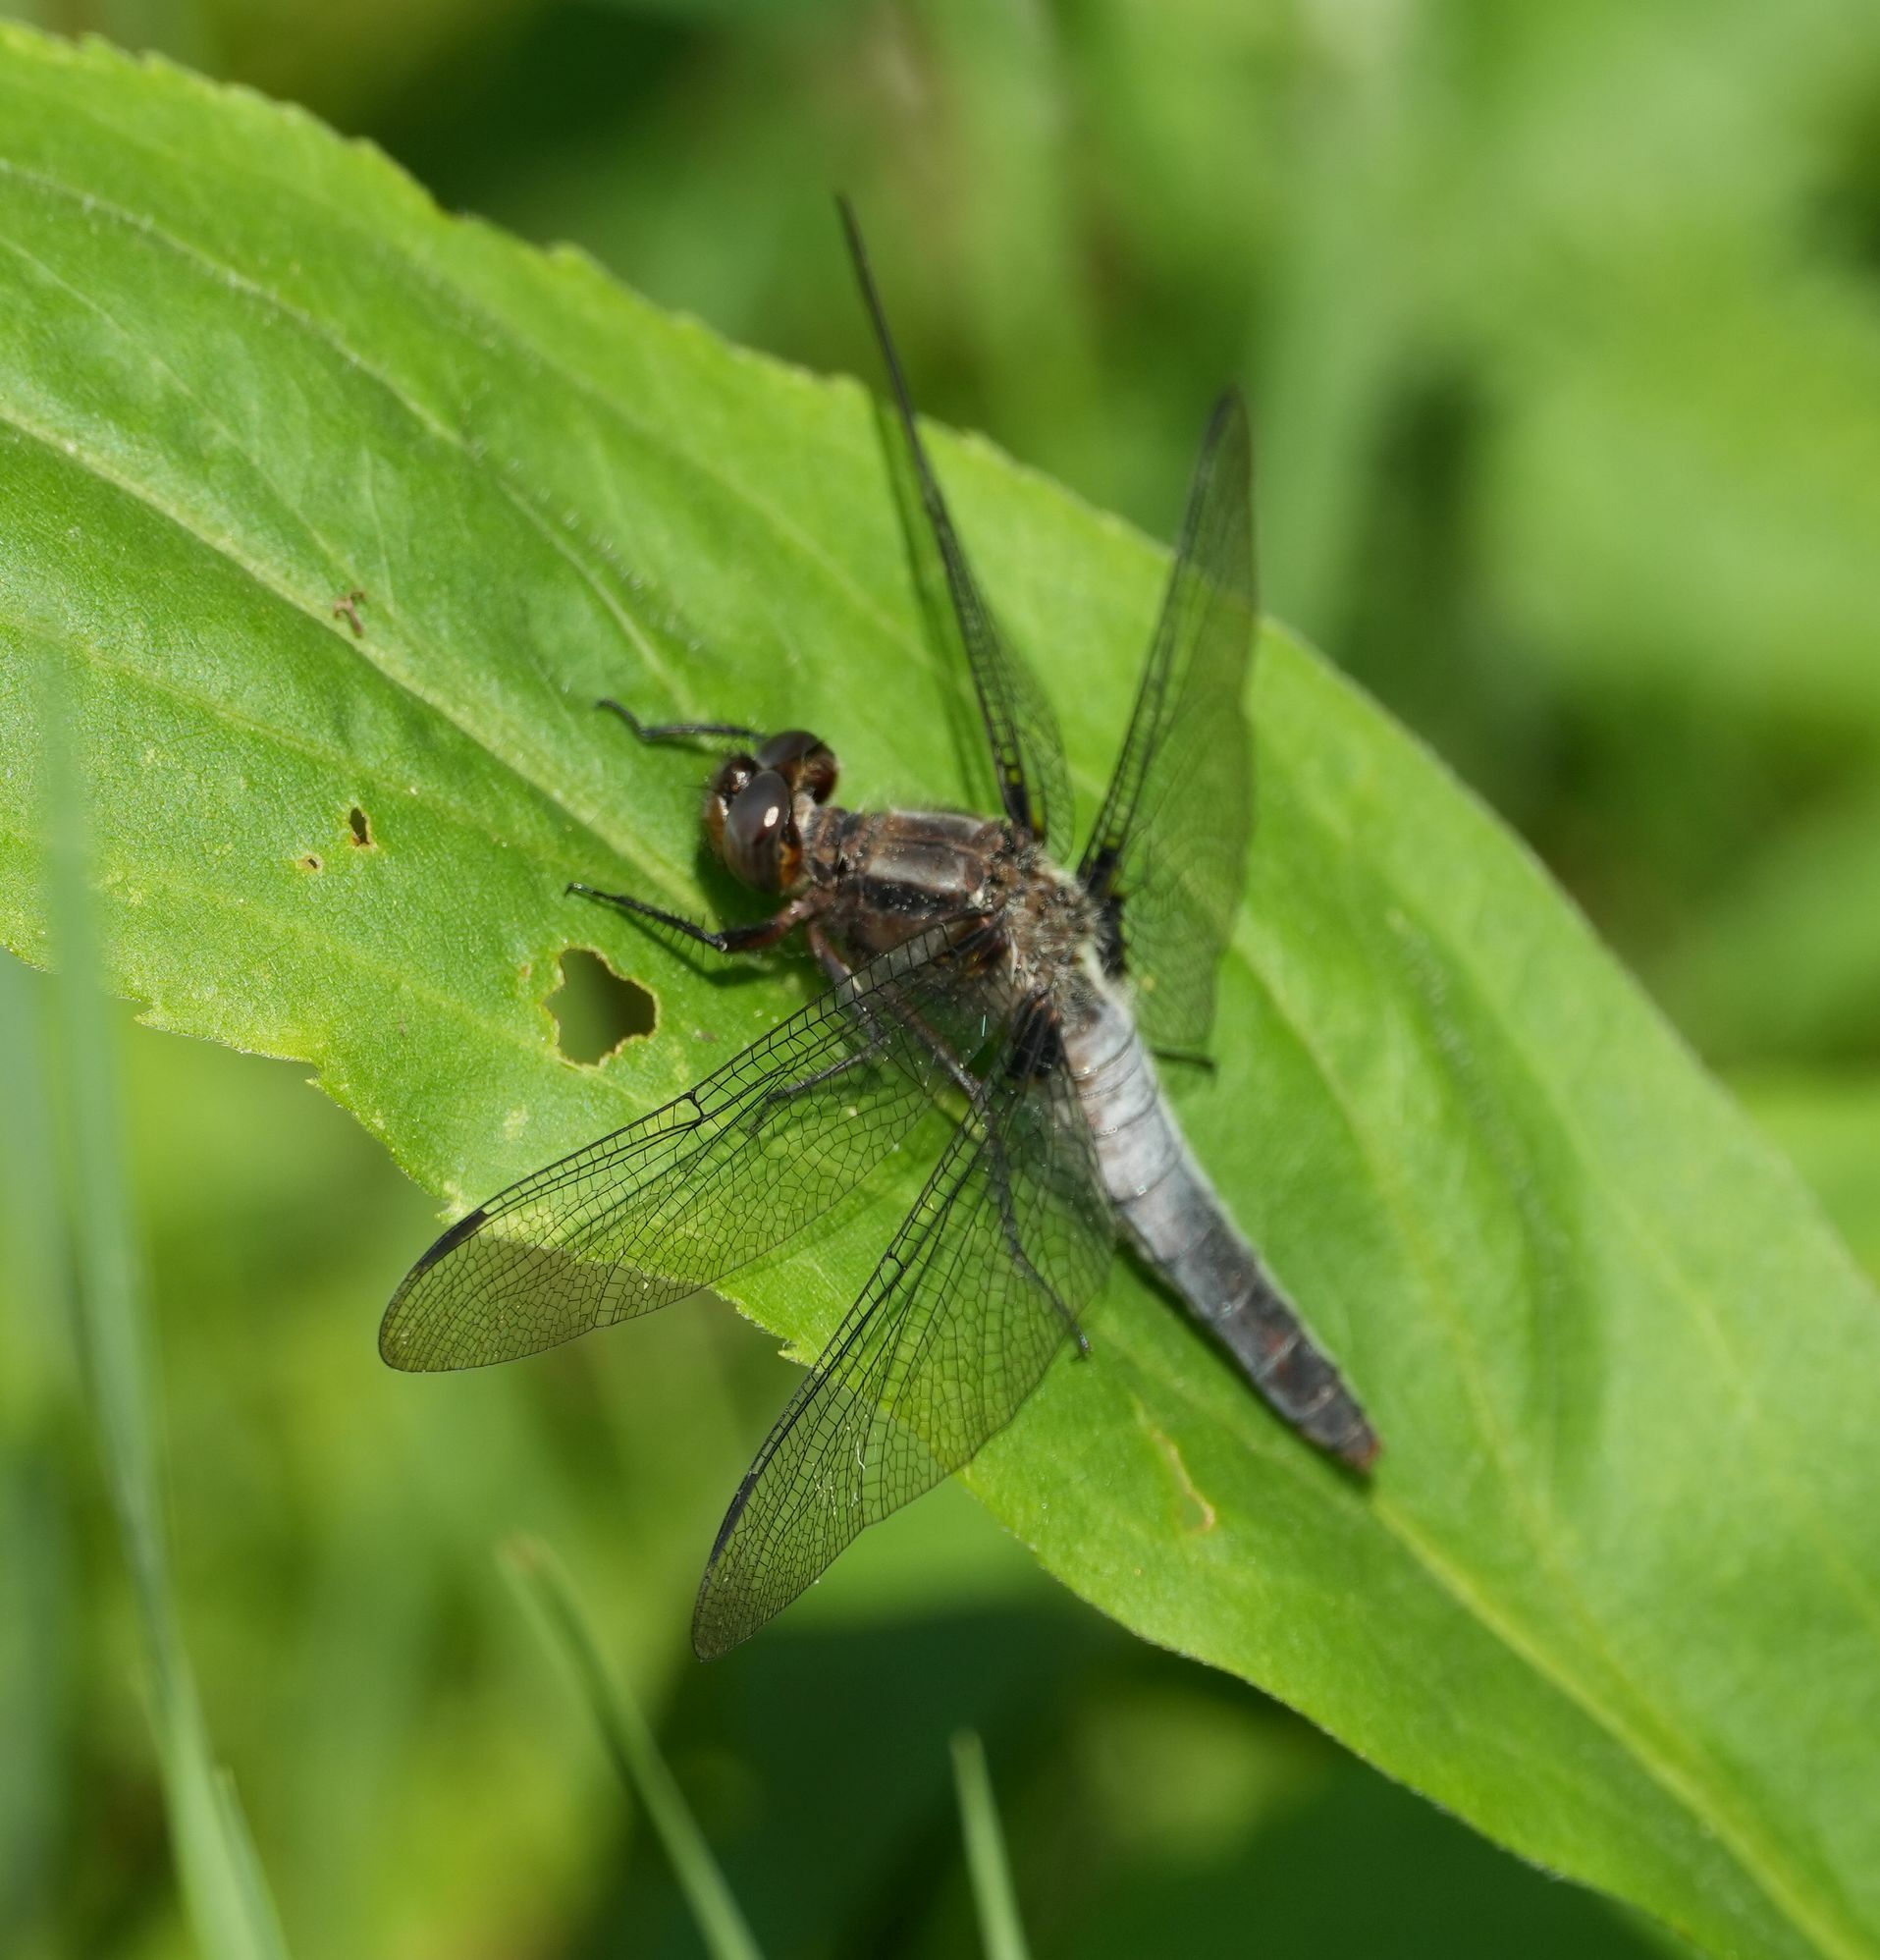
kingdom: Animalia
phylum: Arthropoda
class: Insecta
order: Odonata
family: Libellulidae
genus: Ladona
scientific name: Ladona julia
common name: Chalk-fronted corporal
